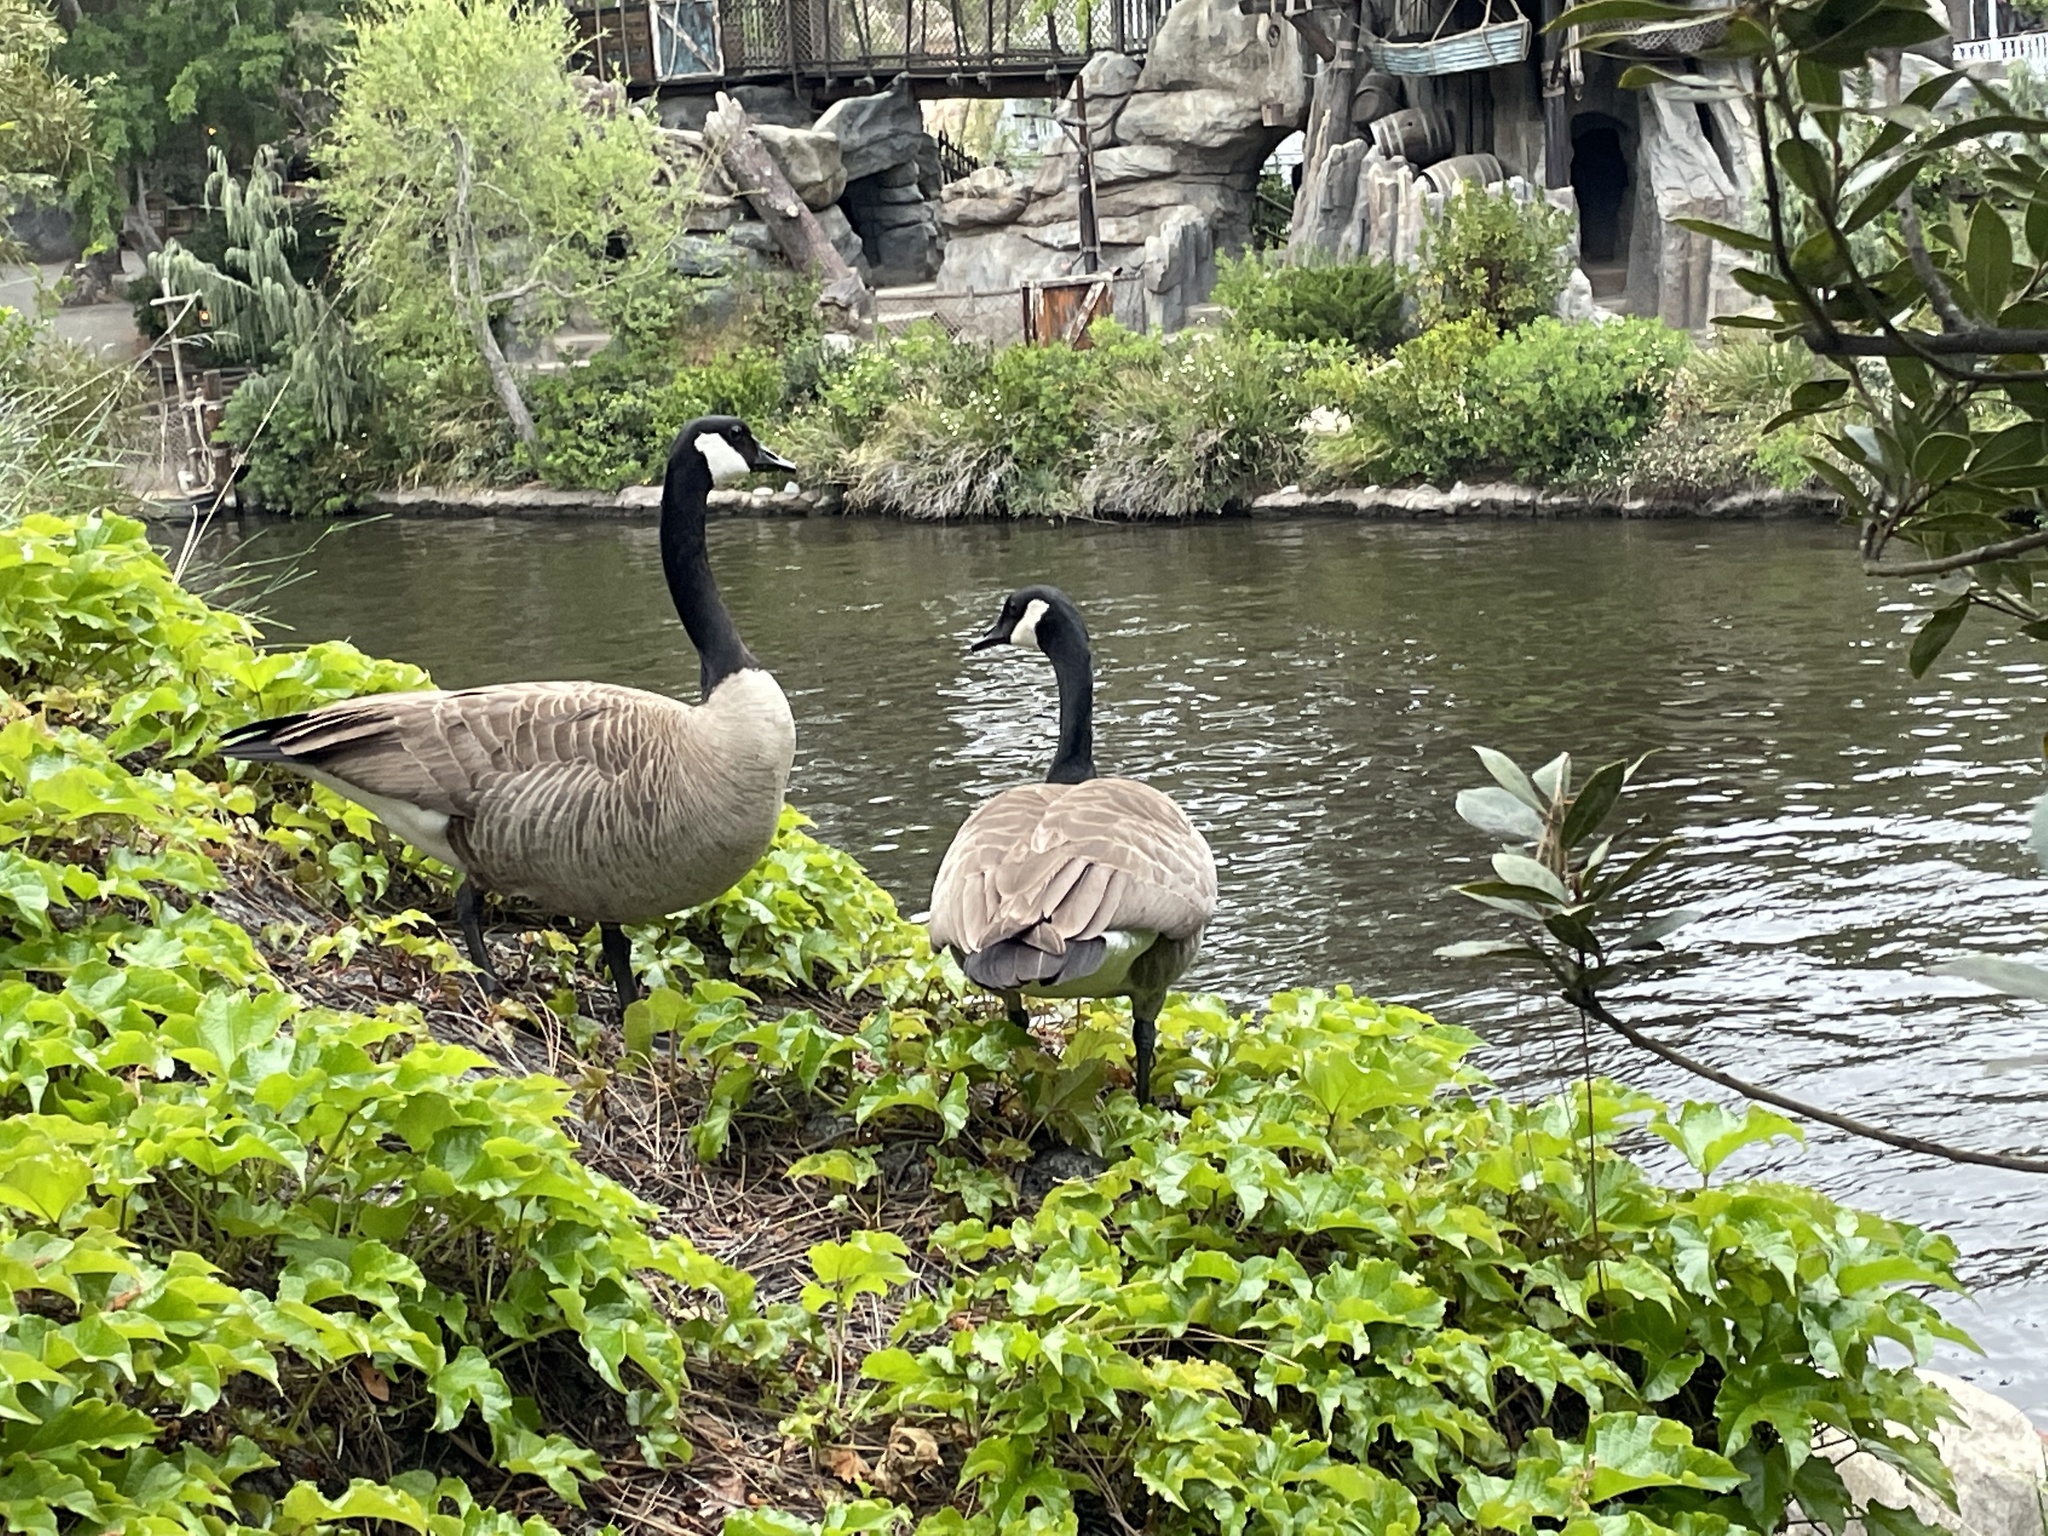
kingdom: Animalia
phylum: Chordata
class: Aves
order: Anseriformes
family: Anatidae
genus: Branta
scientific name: Branta canadensis
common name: Canada goose
